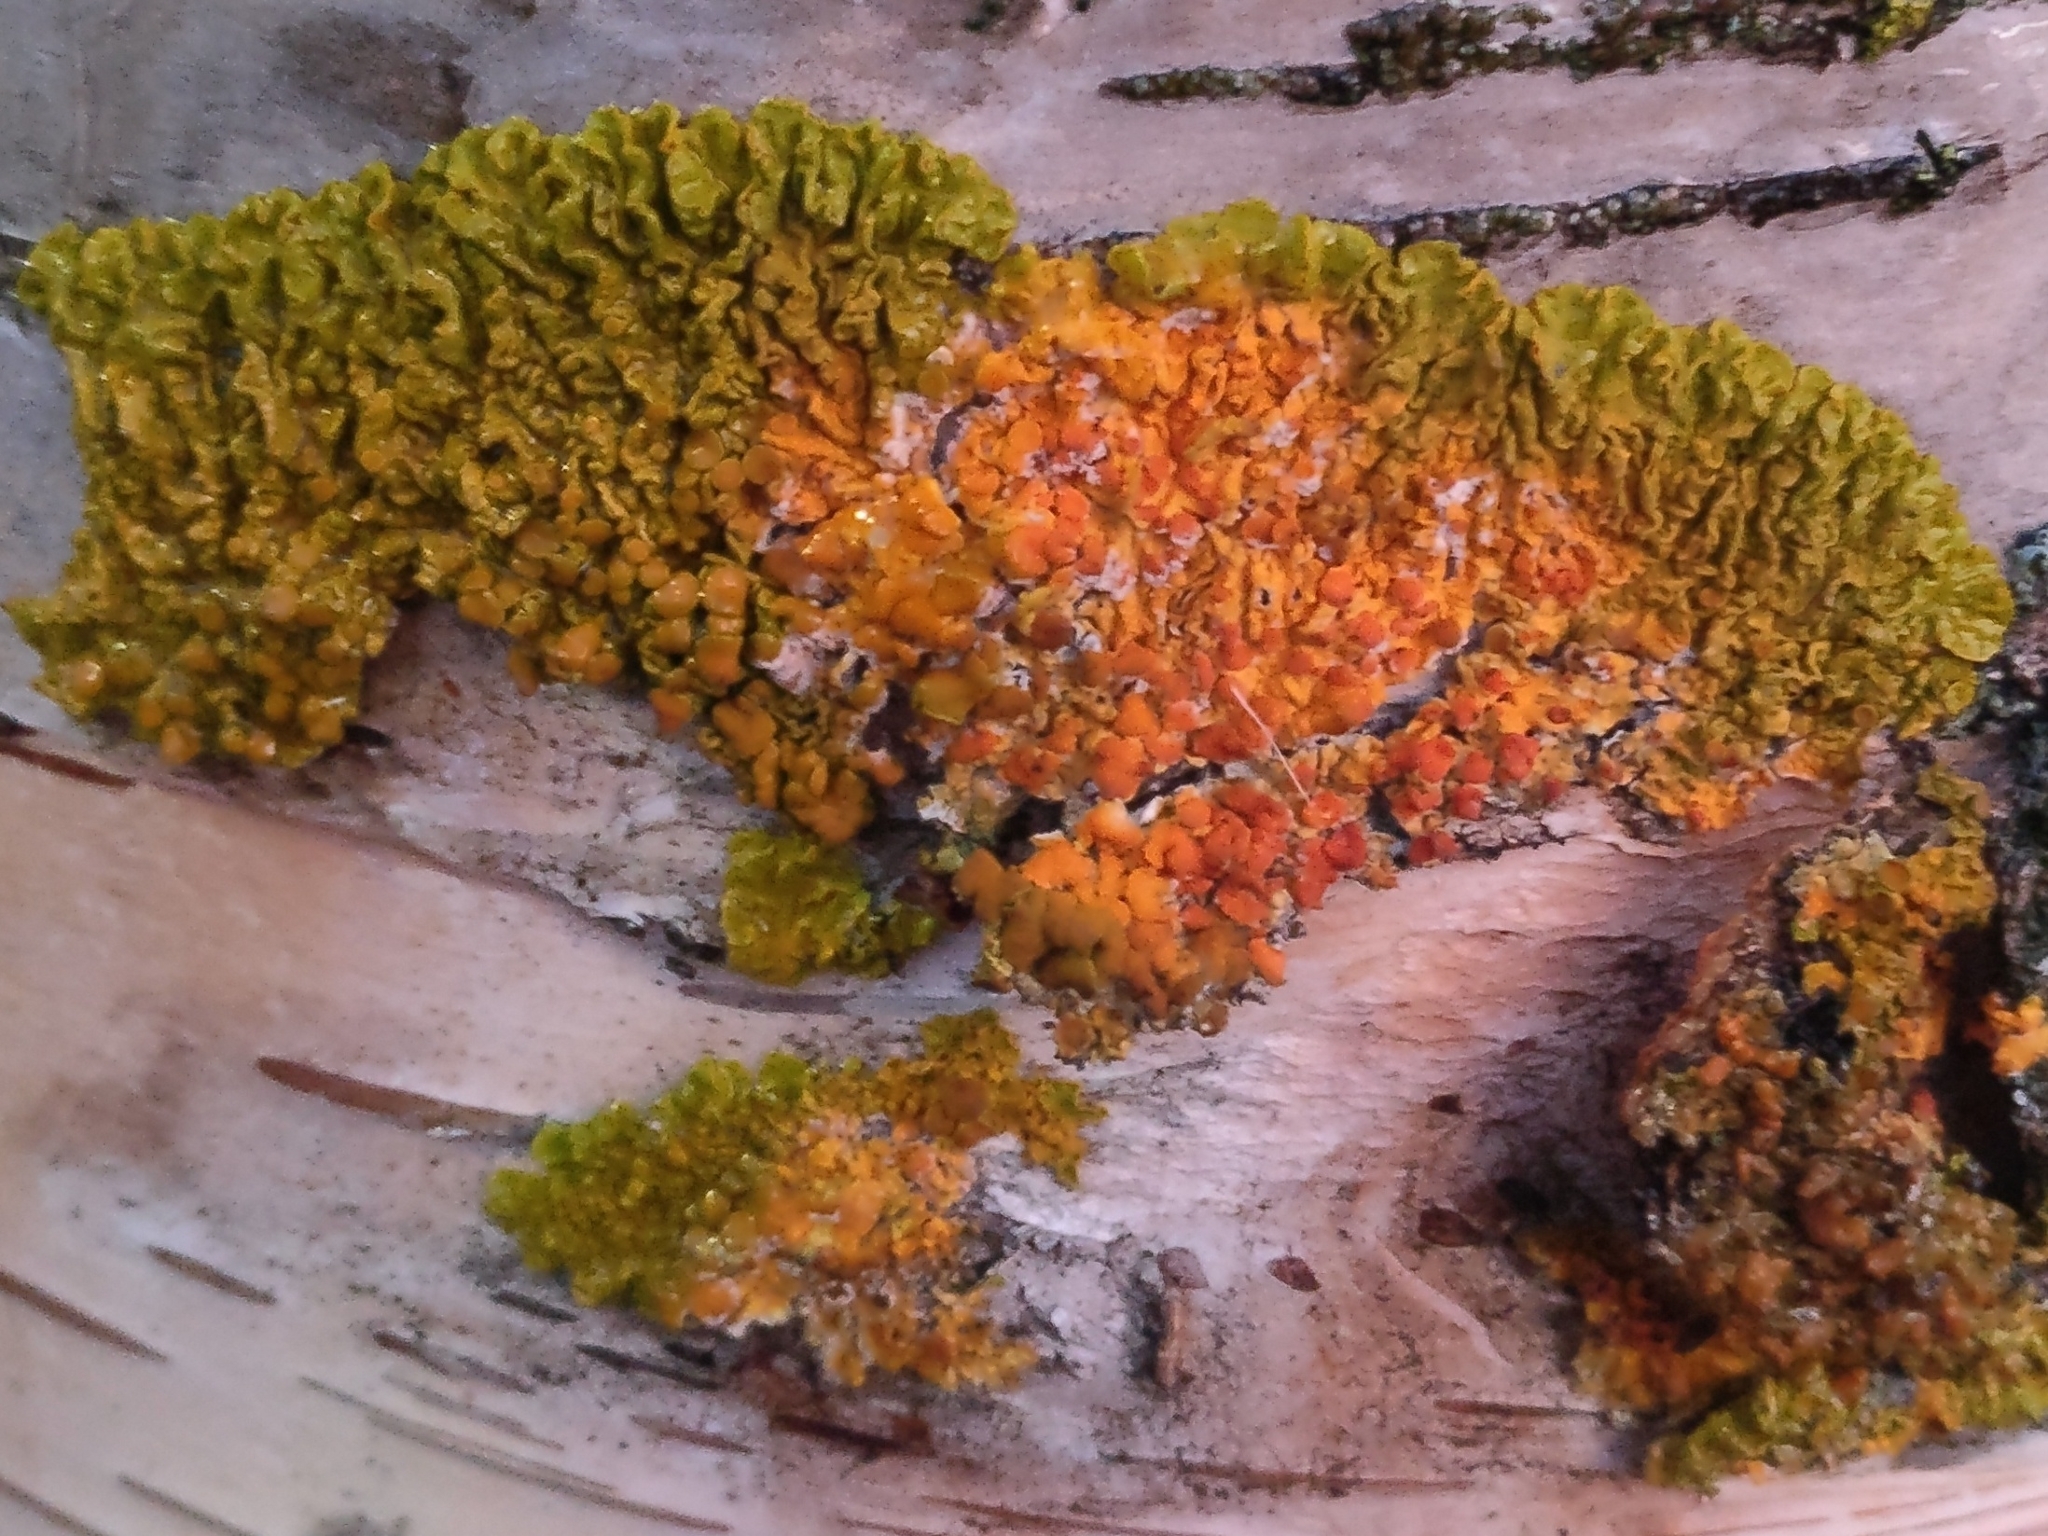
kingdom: Fungi
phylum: Ascomycota
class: Lecanoromycetes
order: Teloschistales
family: Teloschistaceae
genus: Xanthoria
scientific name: Xanthoria parietina
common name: Common orange lichen
